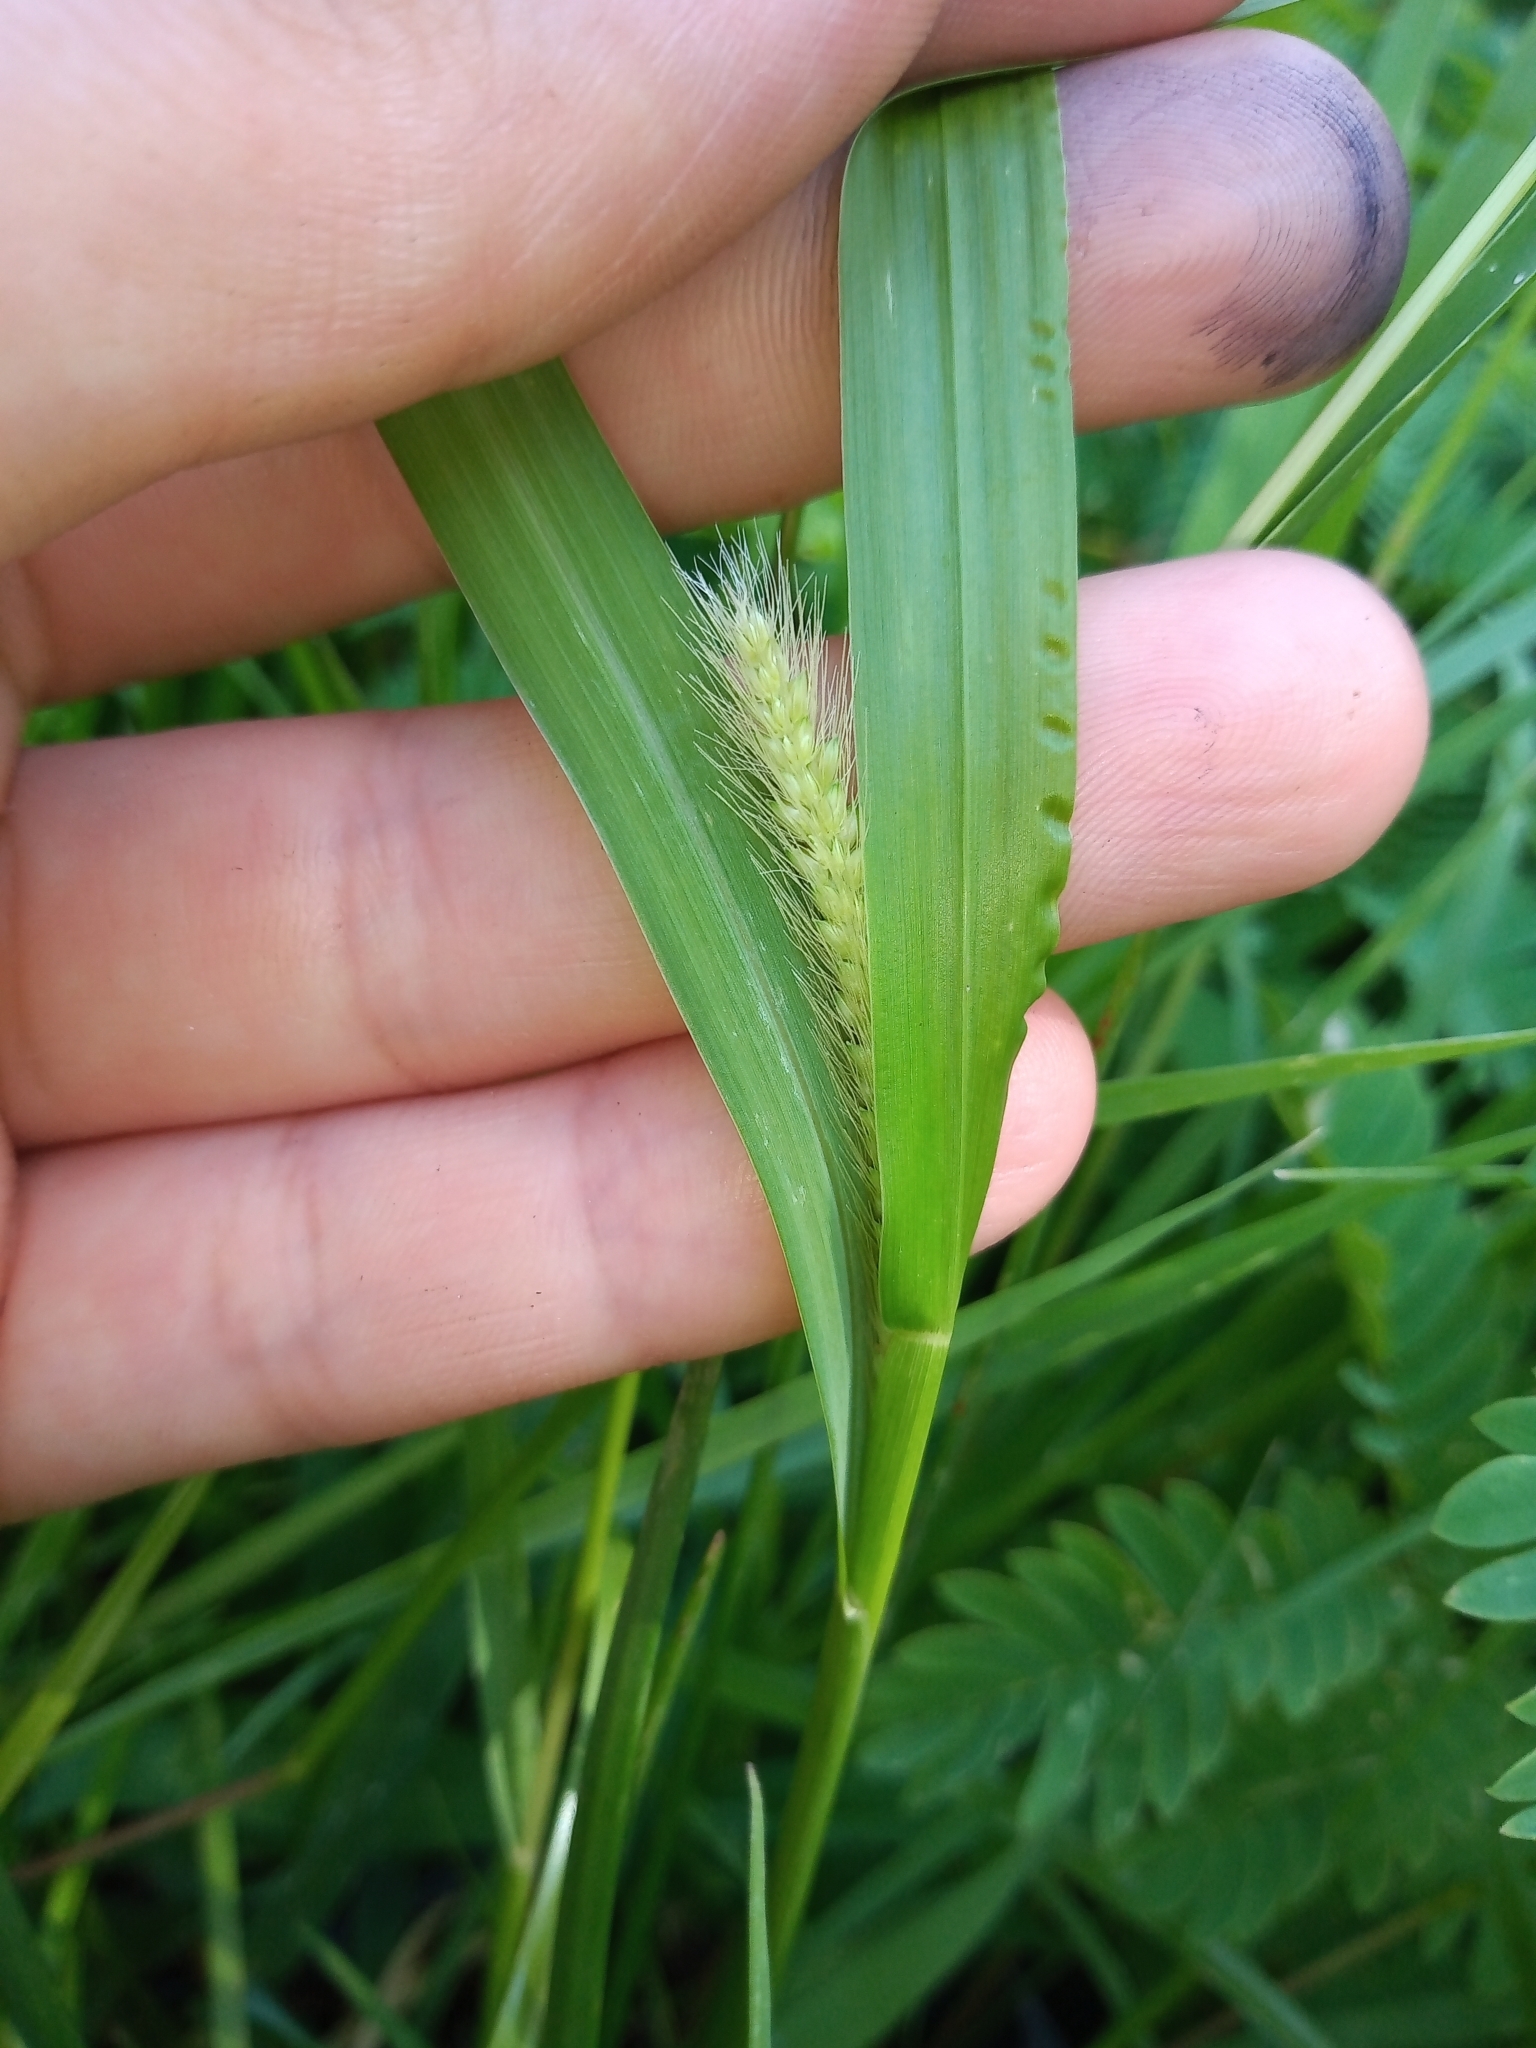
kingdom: Plantae
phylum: Tracheophyta
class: Liliopsida
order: Poales
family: Poaceae
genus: Setaria
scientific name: Setaria parviflora
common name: Knotroot bristle-grass
